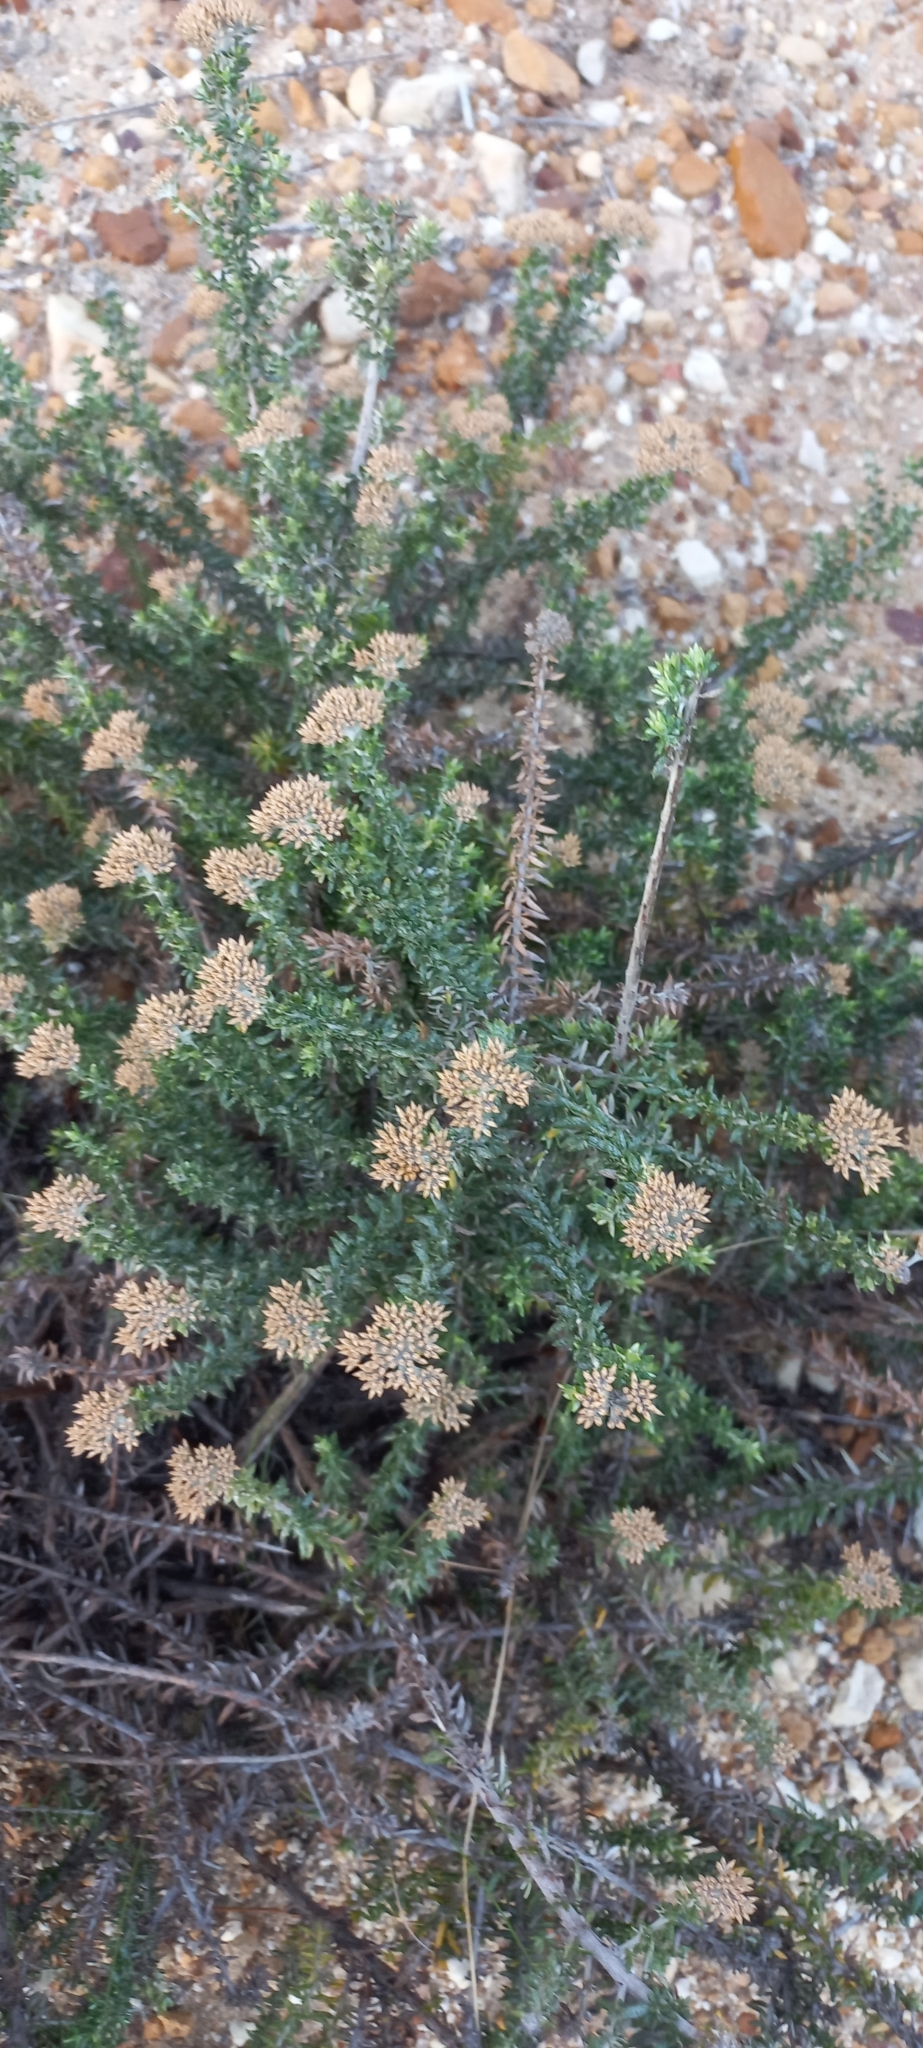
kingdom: Plantae
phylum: Tracheophyta
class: Magnoliopsida
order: Asterales
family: Asteraceae
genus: Metalasia
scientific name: Metalasia muricata
